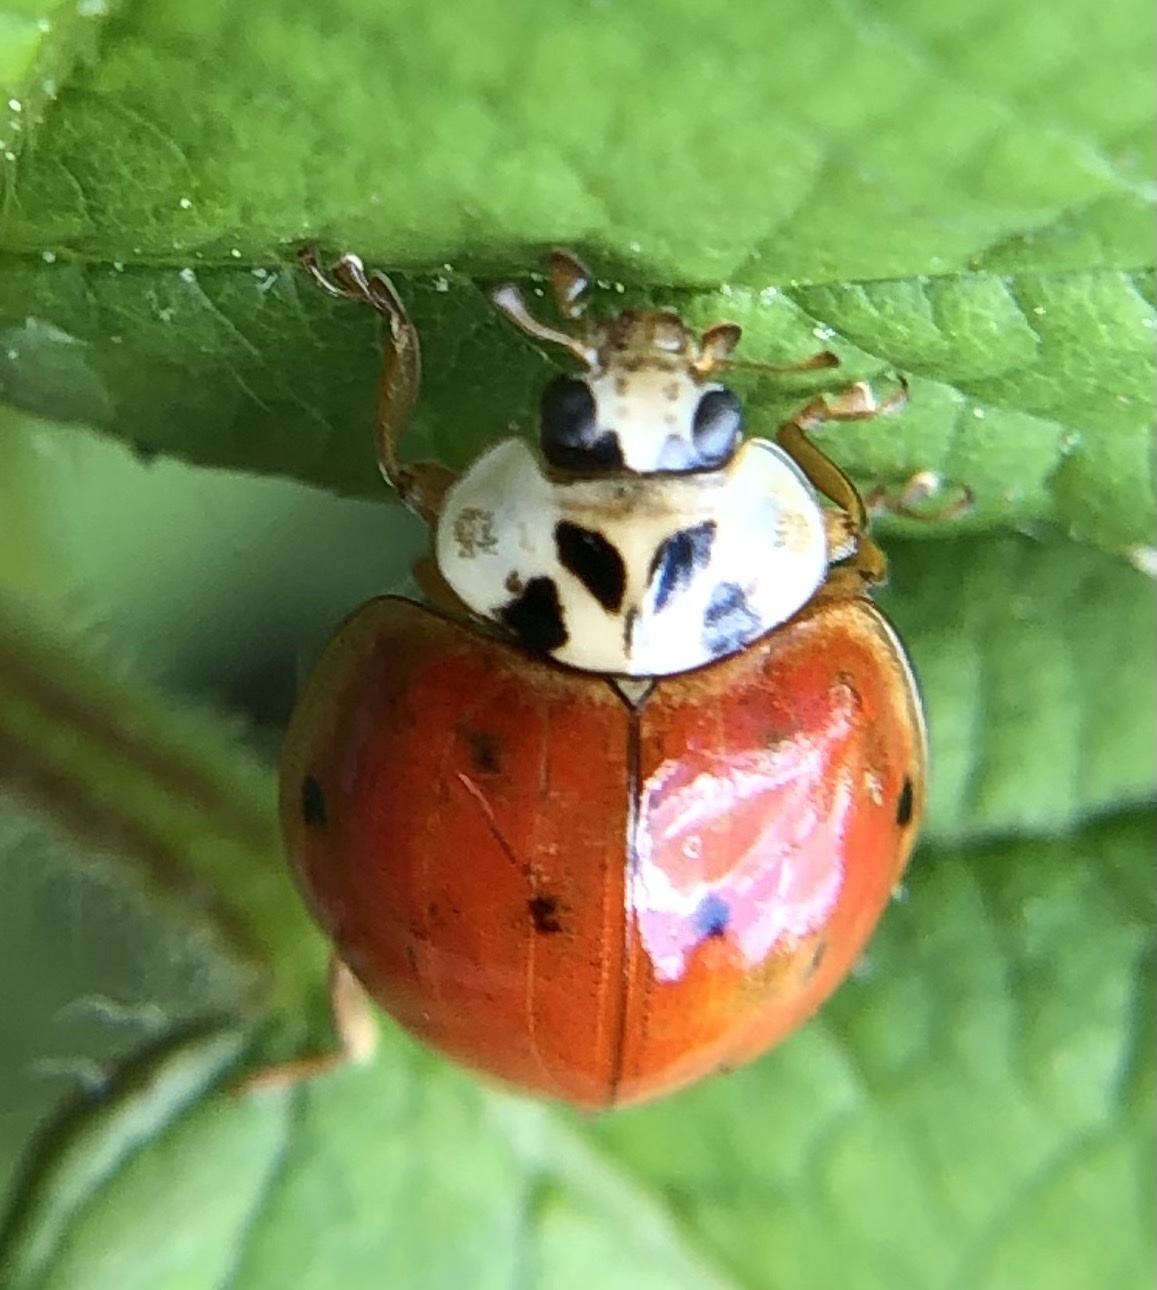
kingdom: Animalia
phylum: Arthropoda
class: Insecta
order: Coleoptera
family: Coccinellidae
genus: Harmonia
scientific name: Harmonia axyridis
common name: Harlequin ladybird
